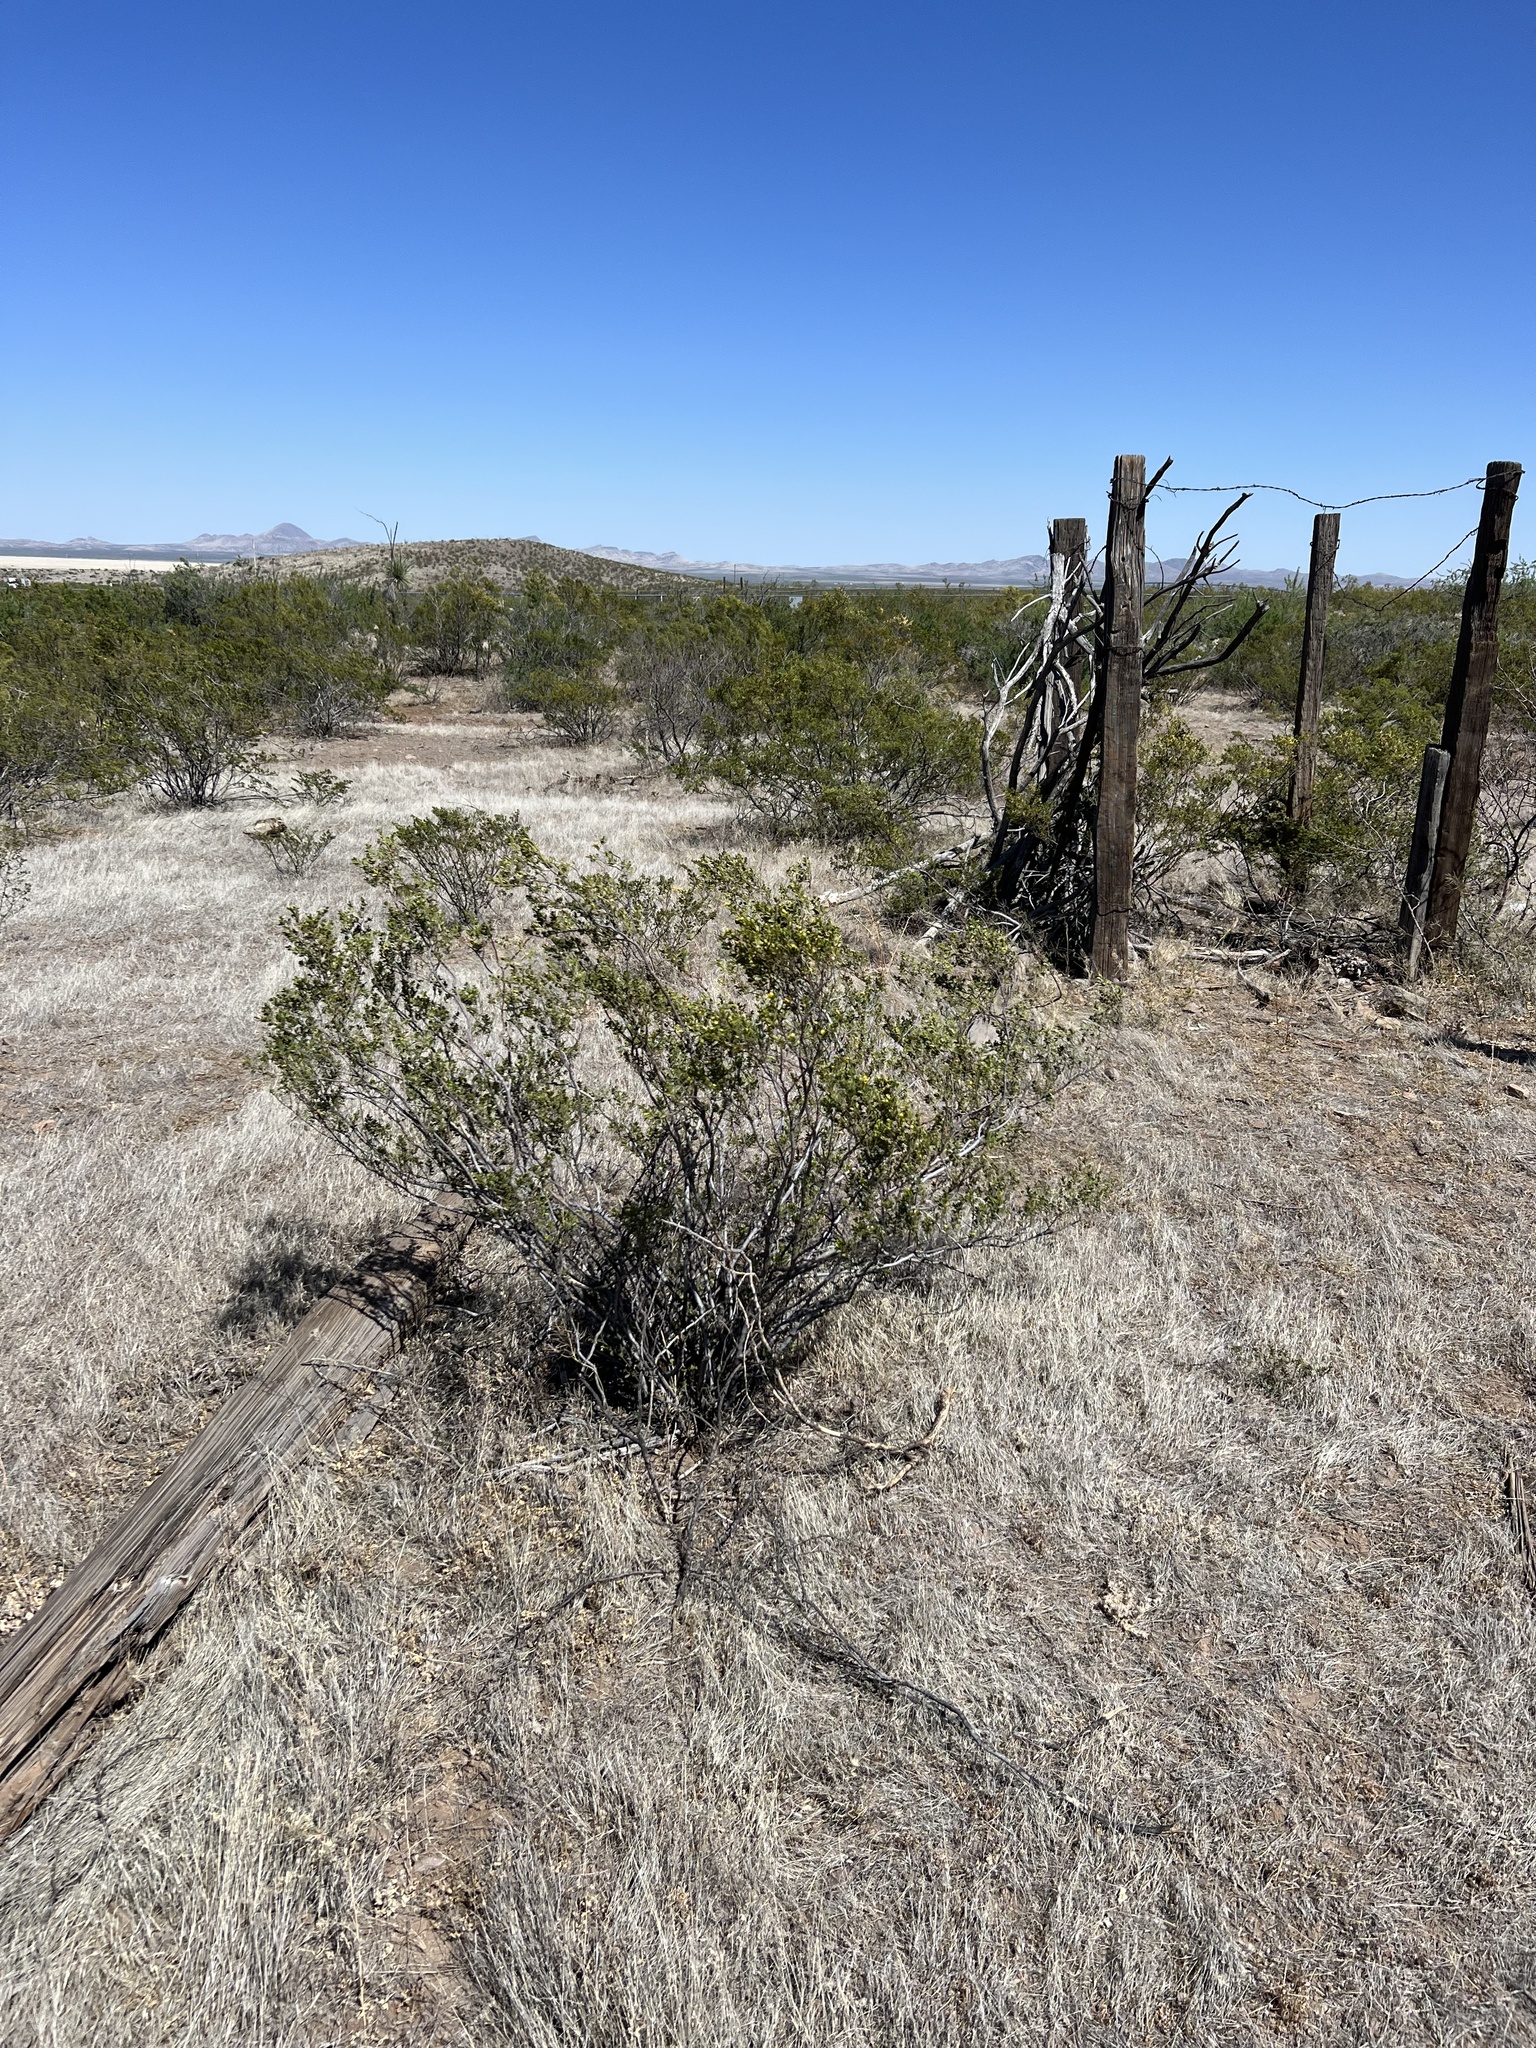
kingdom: Plantae
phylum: Tracheophyta
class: Magnoliopsida
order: Zygophyllales
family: Zygophyllaceae
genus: Larrea
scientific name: Larrea tridentata
